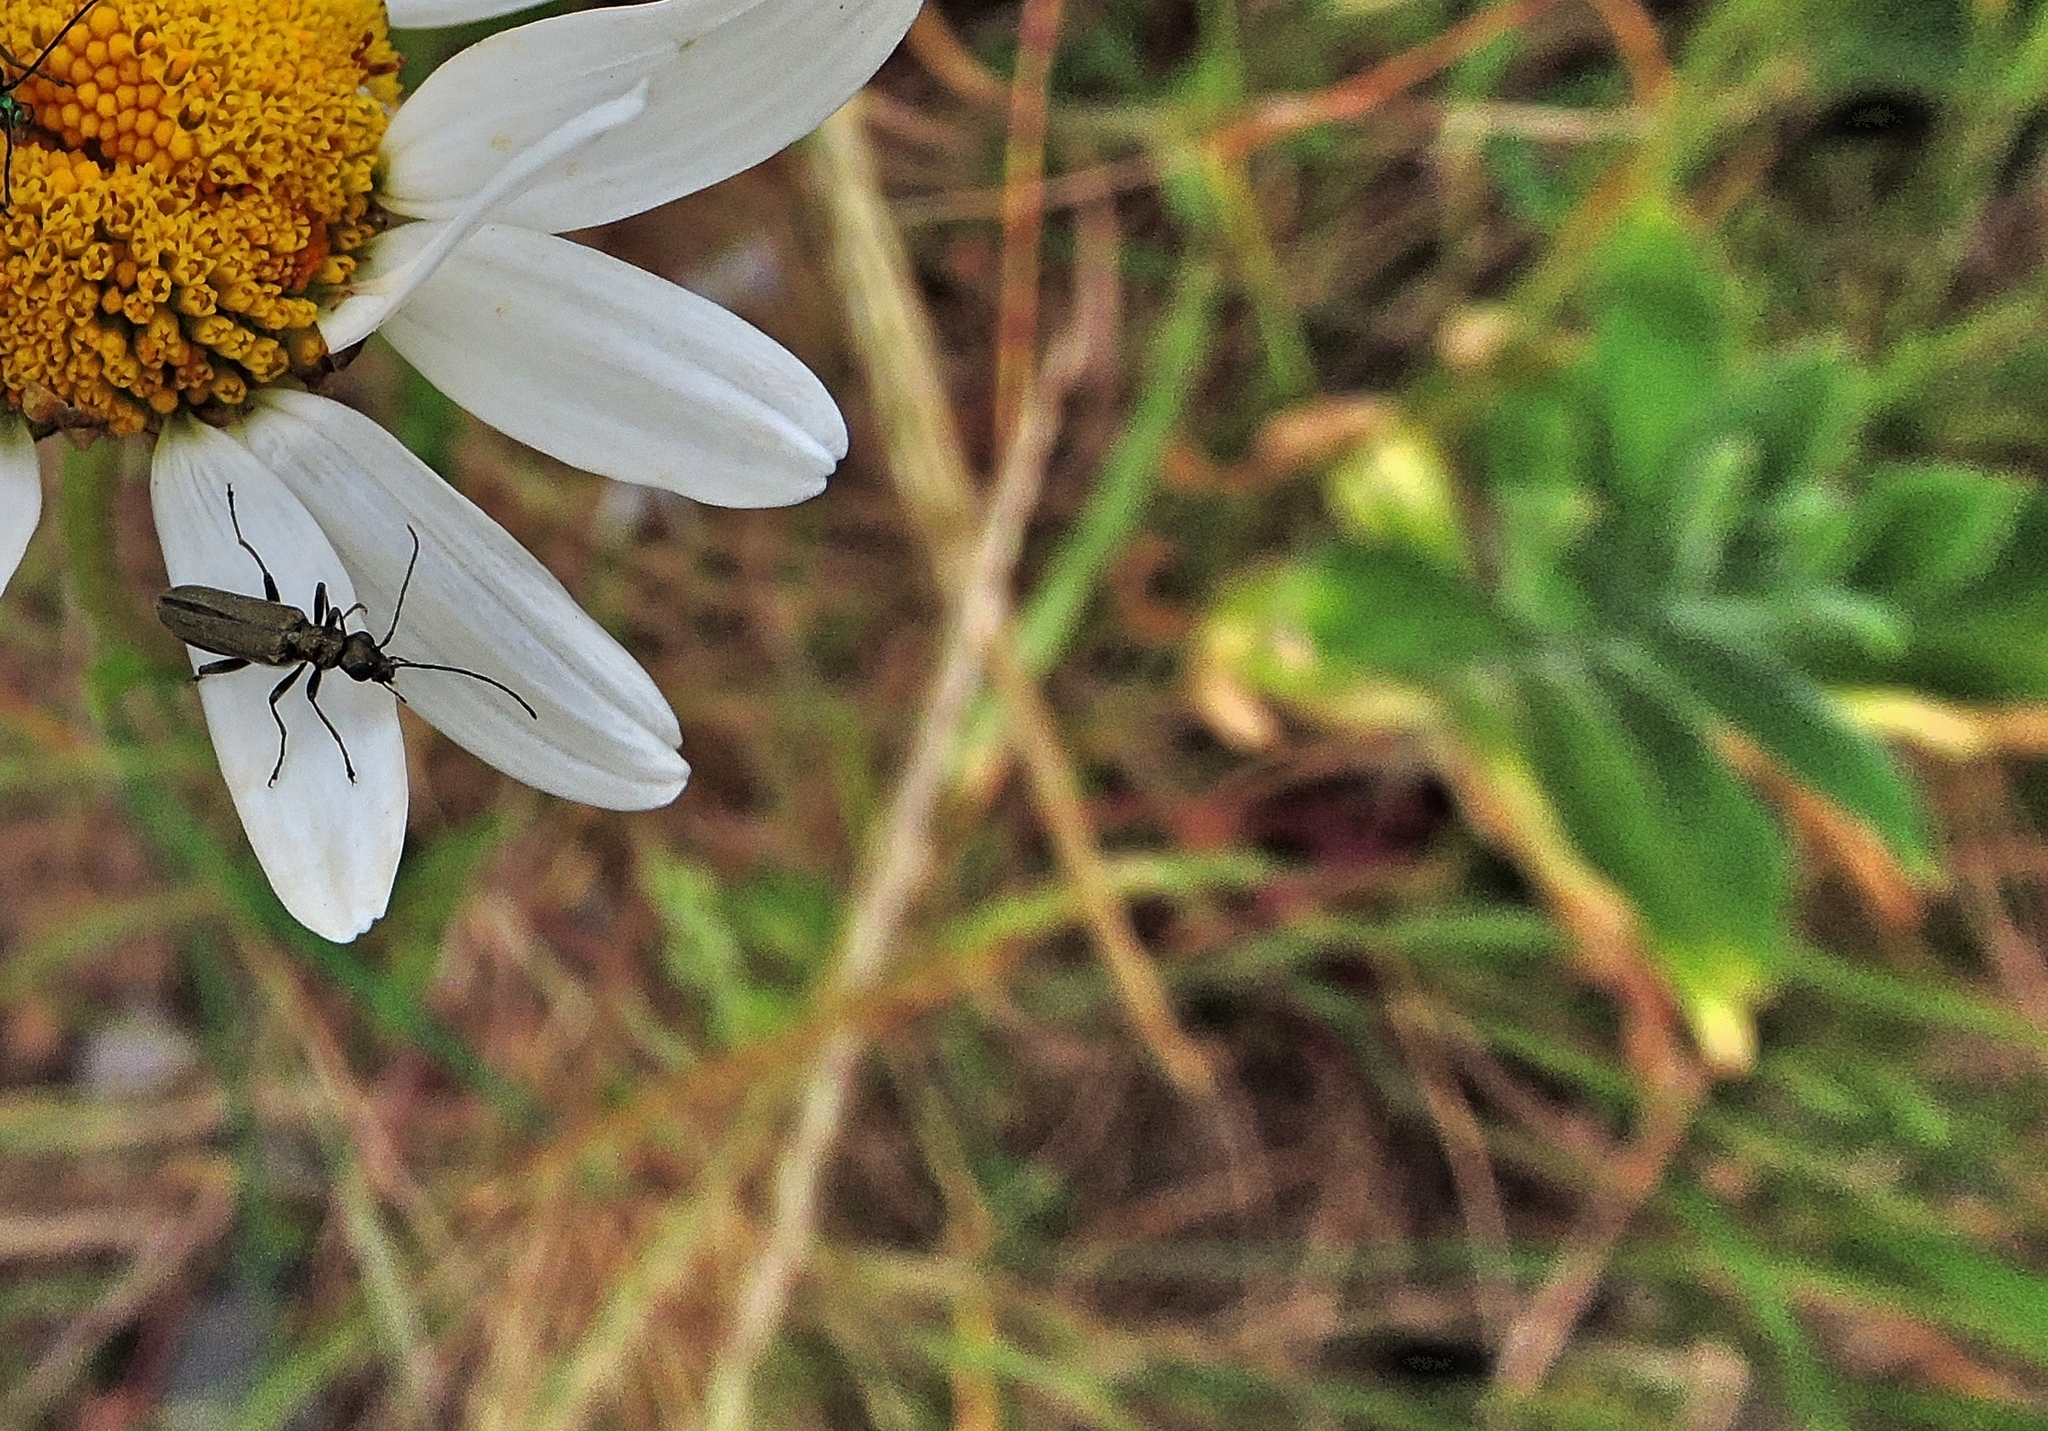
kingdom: Animalia
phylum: Arthropoda
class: Insecta
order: Coleoptera
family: Oedemeridae
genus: Oedemera
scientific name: Oedemera lurida
